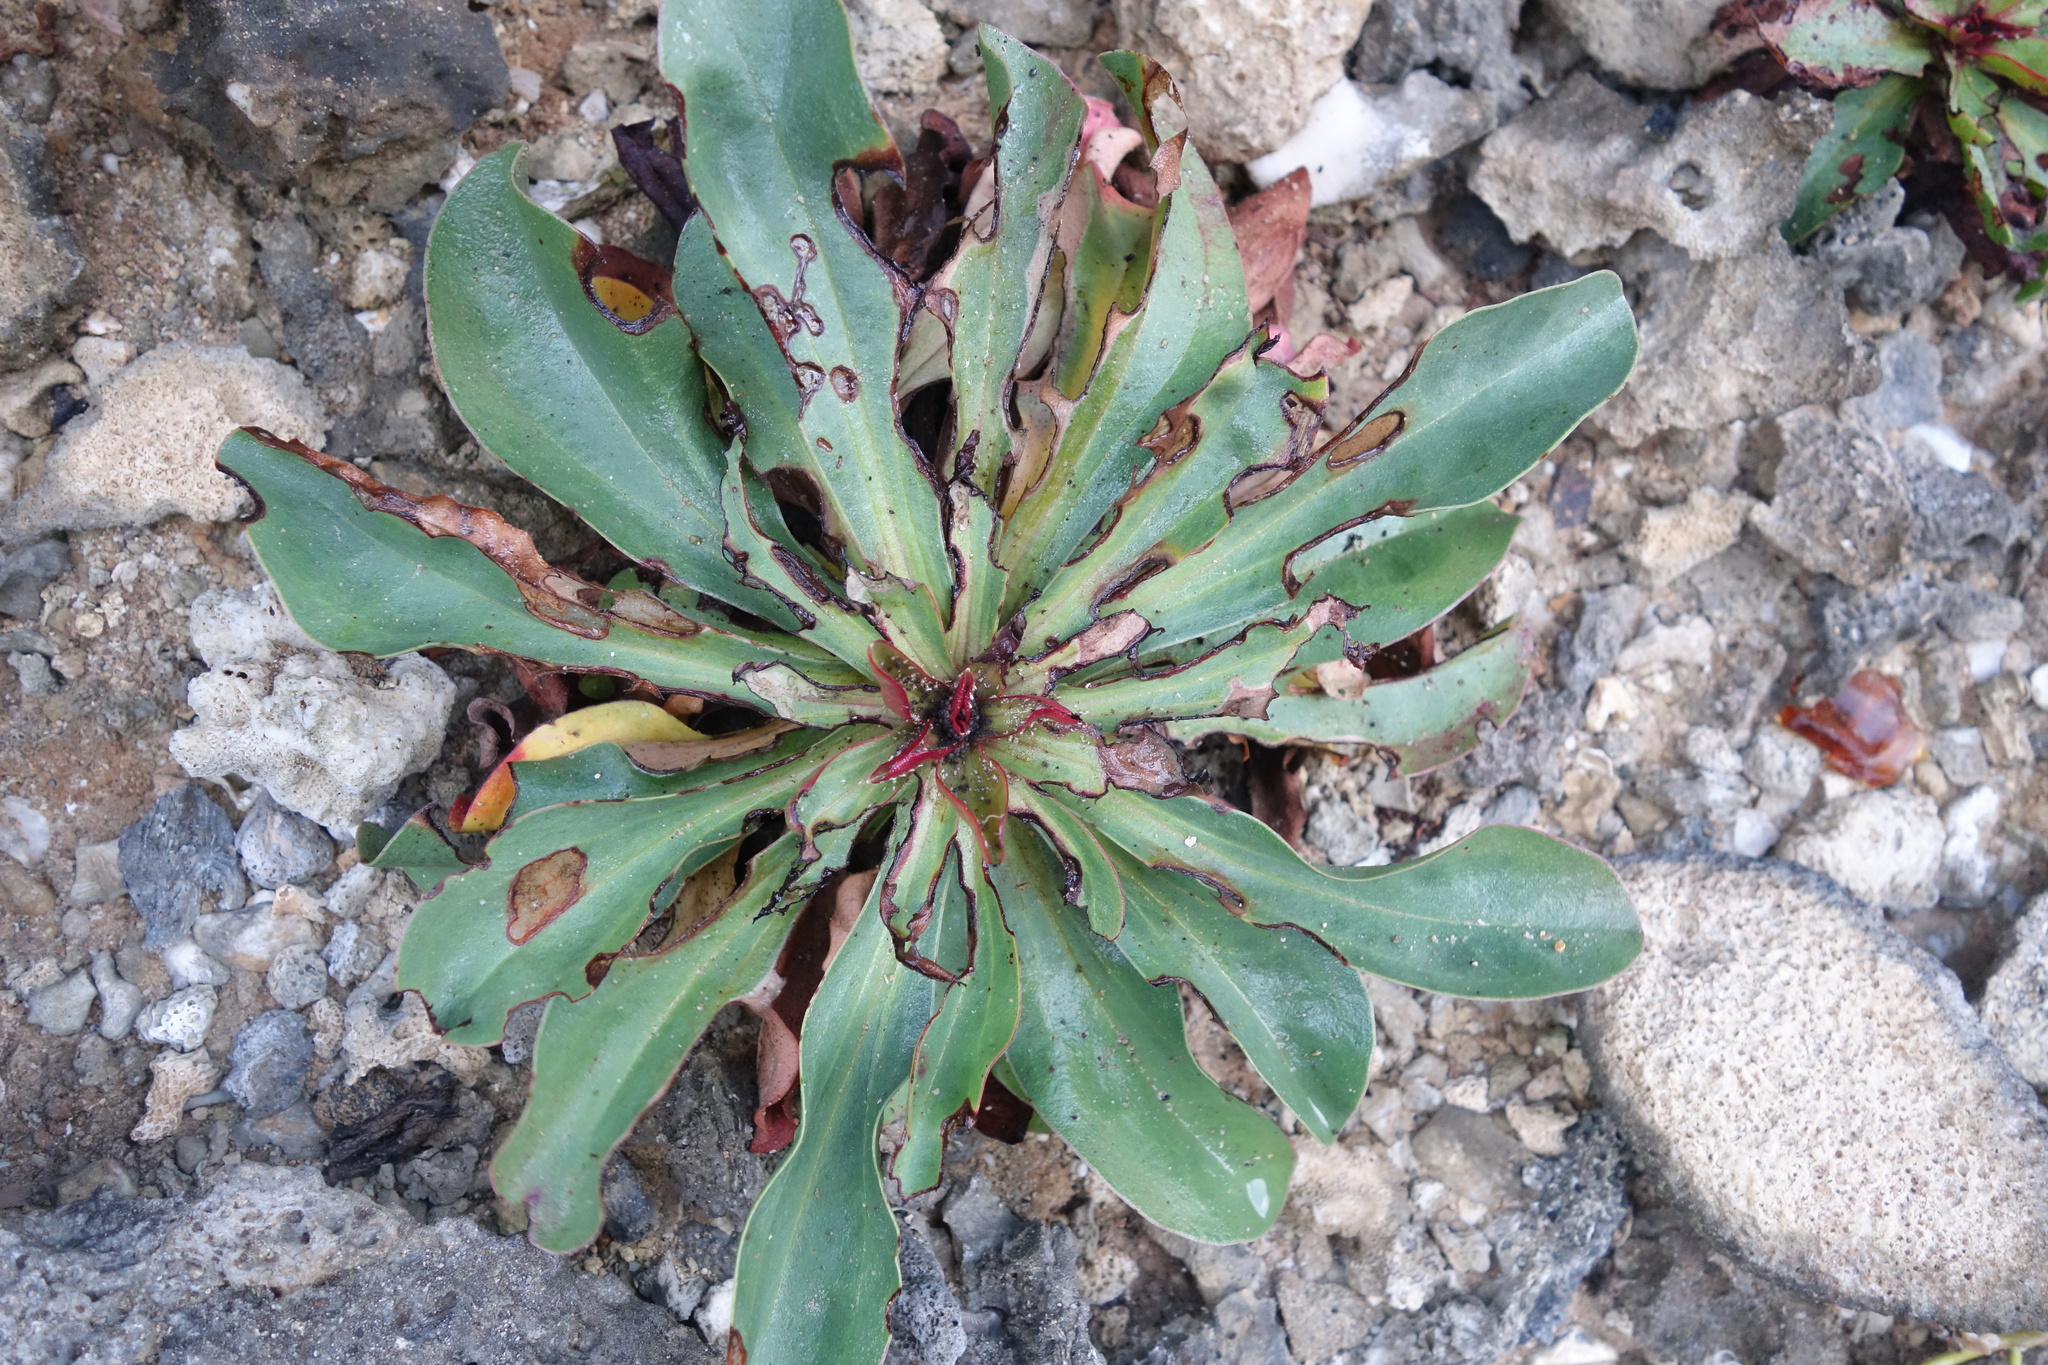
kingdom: Plantae
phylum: Tracheophyta
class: Magnoliopsida
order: Caryophyllales
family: Plumbaginaceae
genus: Limonium
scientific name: Limonium sinense
